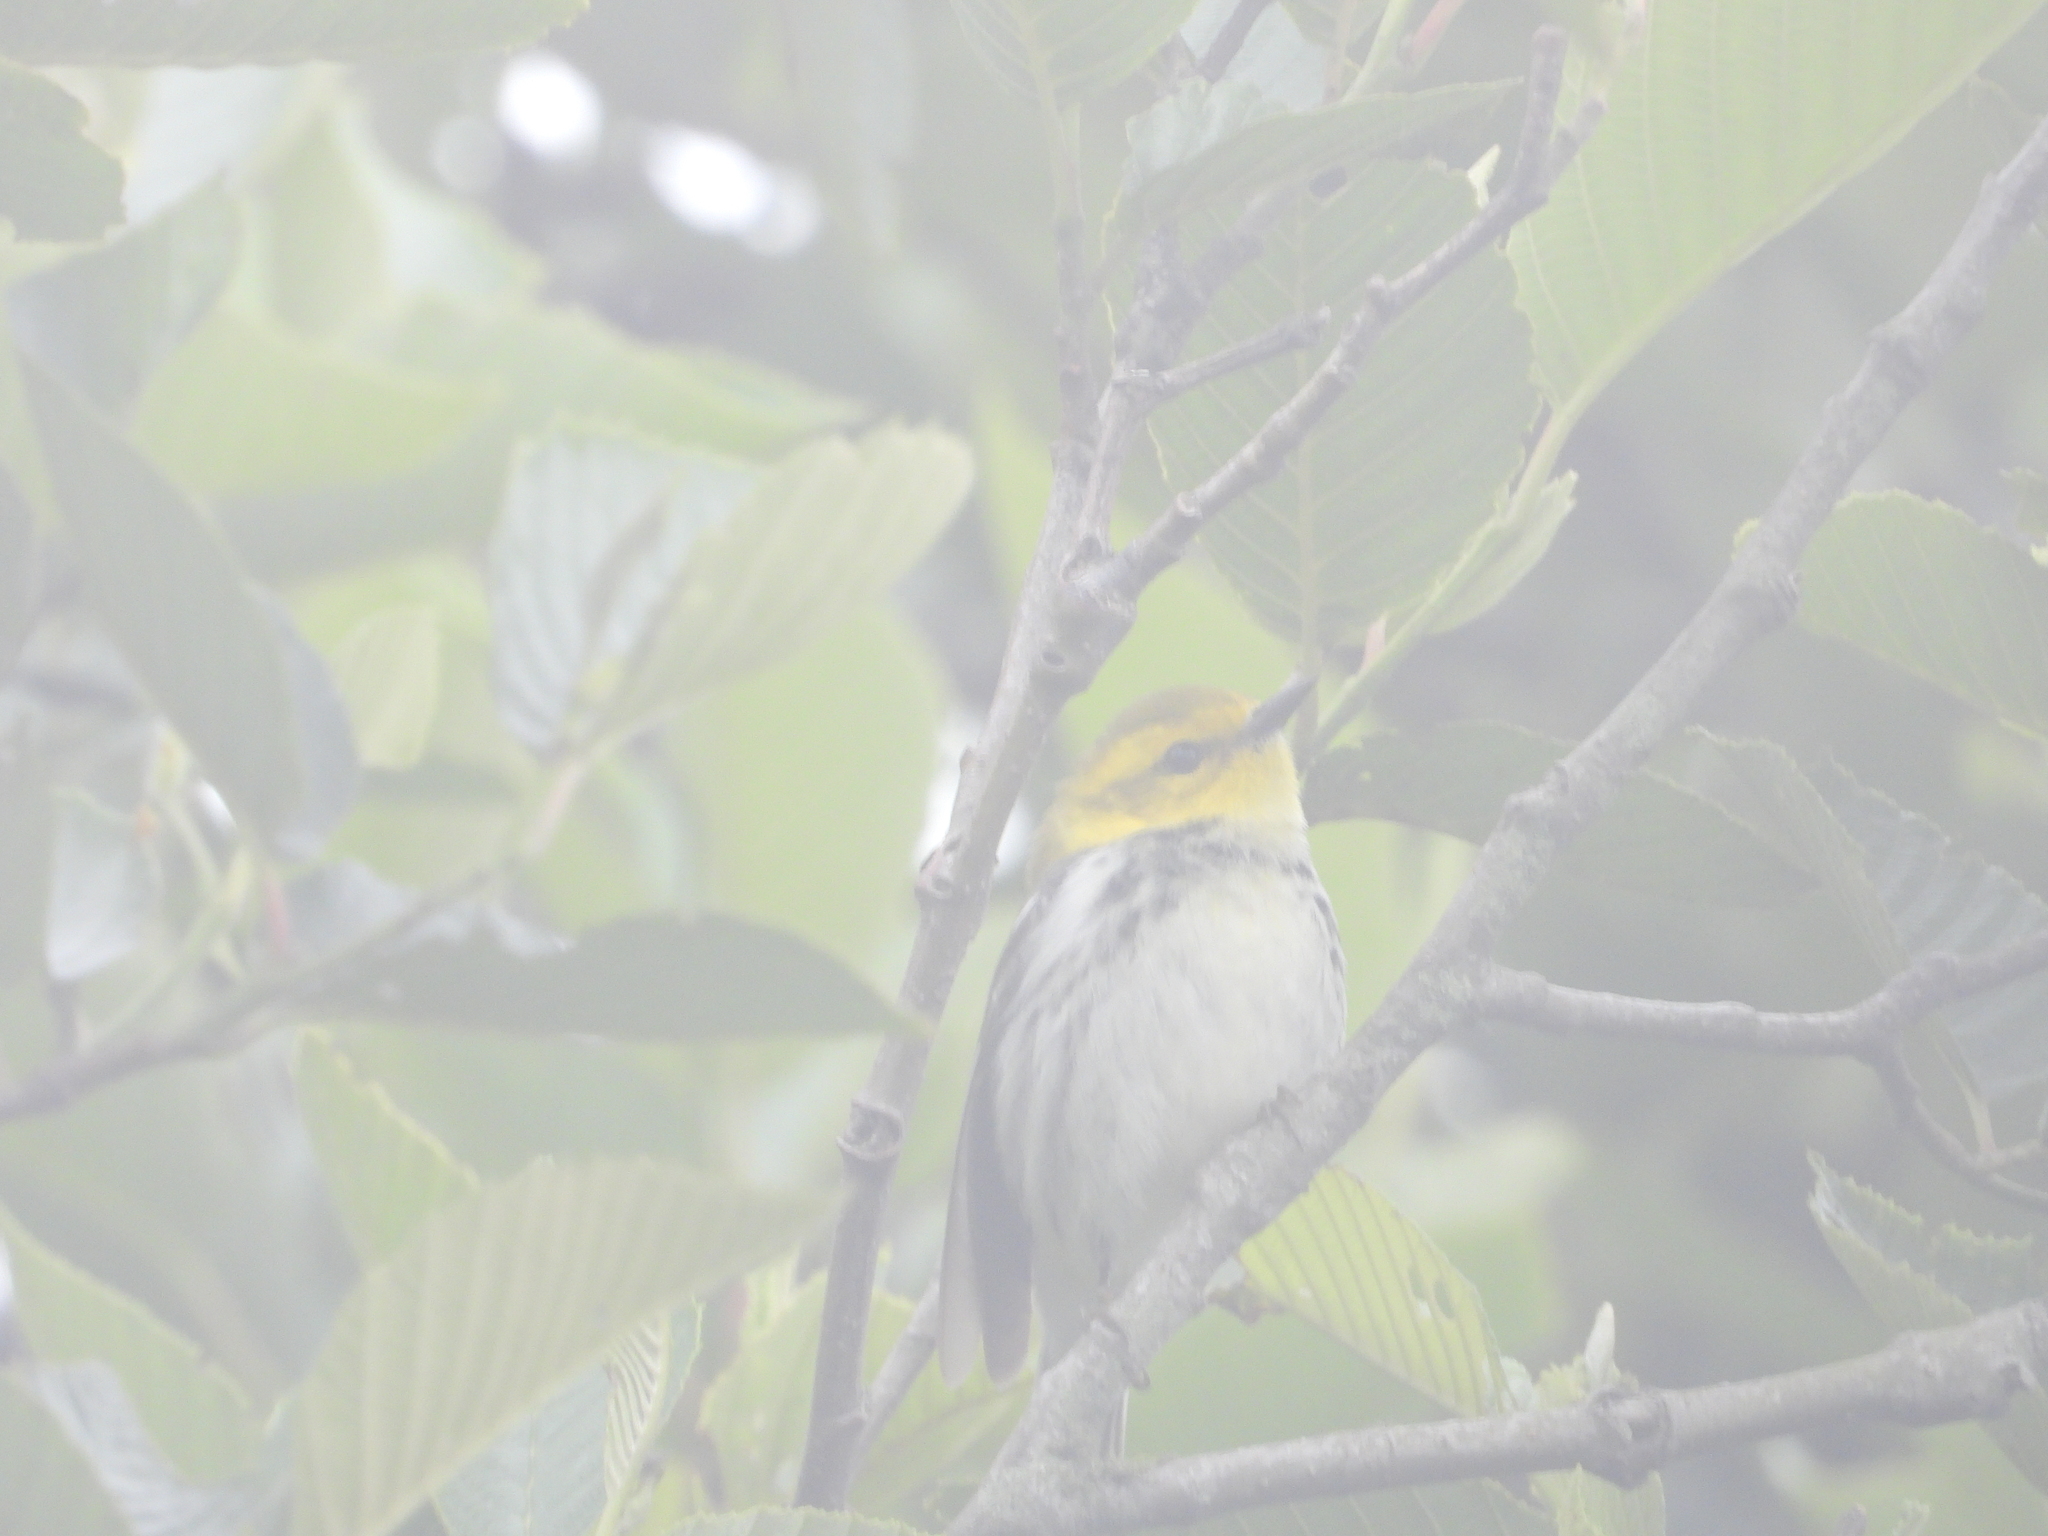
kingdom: Animalia
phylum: Chordata
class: Aves
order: Passeriformes
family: Parulidae
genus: Setophaga
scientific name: Setophaga virens
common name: Black-throated green warbler
